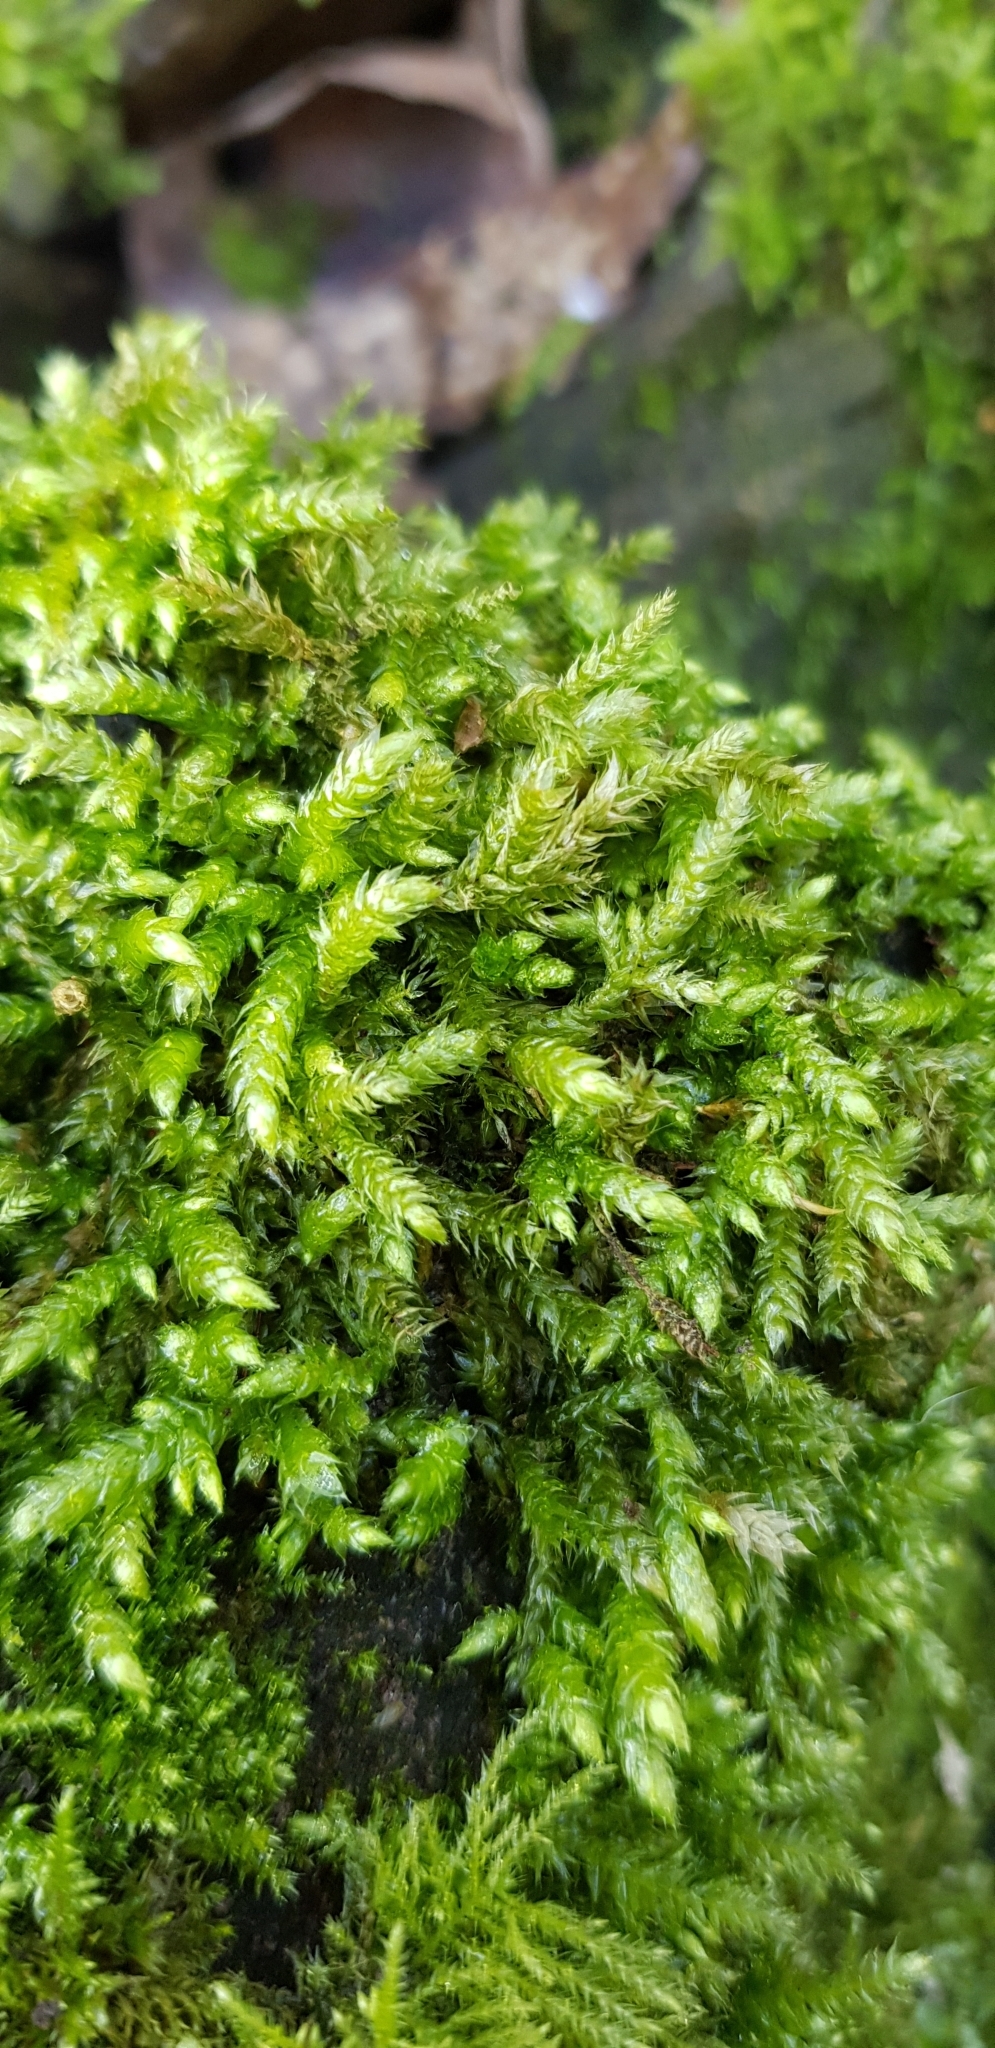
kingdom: Plantae
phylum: Bryophyta
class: Bryopsida
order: Hypnales
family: Brachytheciaceae
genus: Brachythecium
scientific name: Brachythecium rutabulum
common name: Rough-stalked feather-moss
